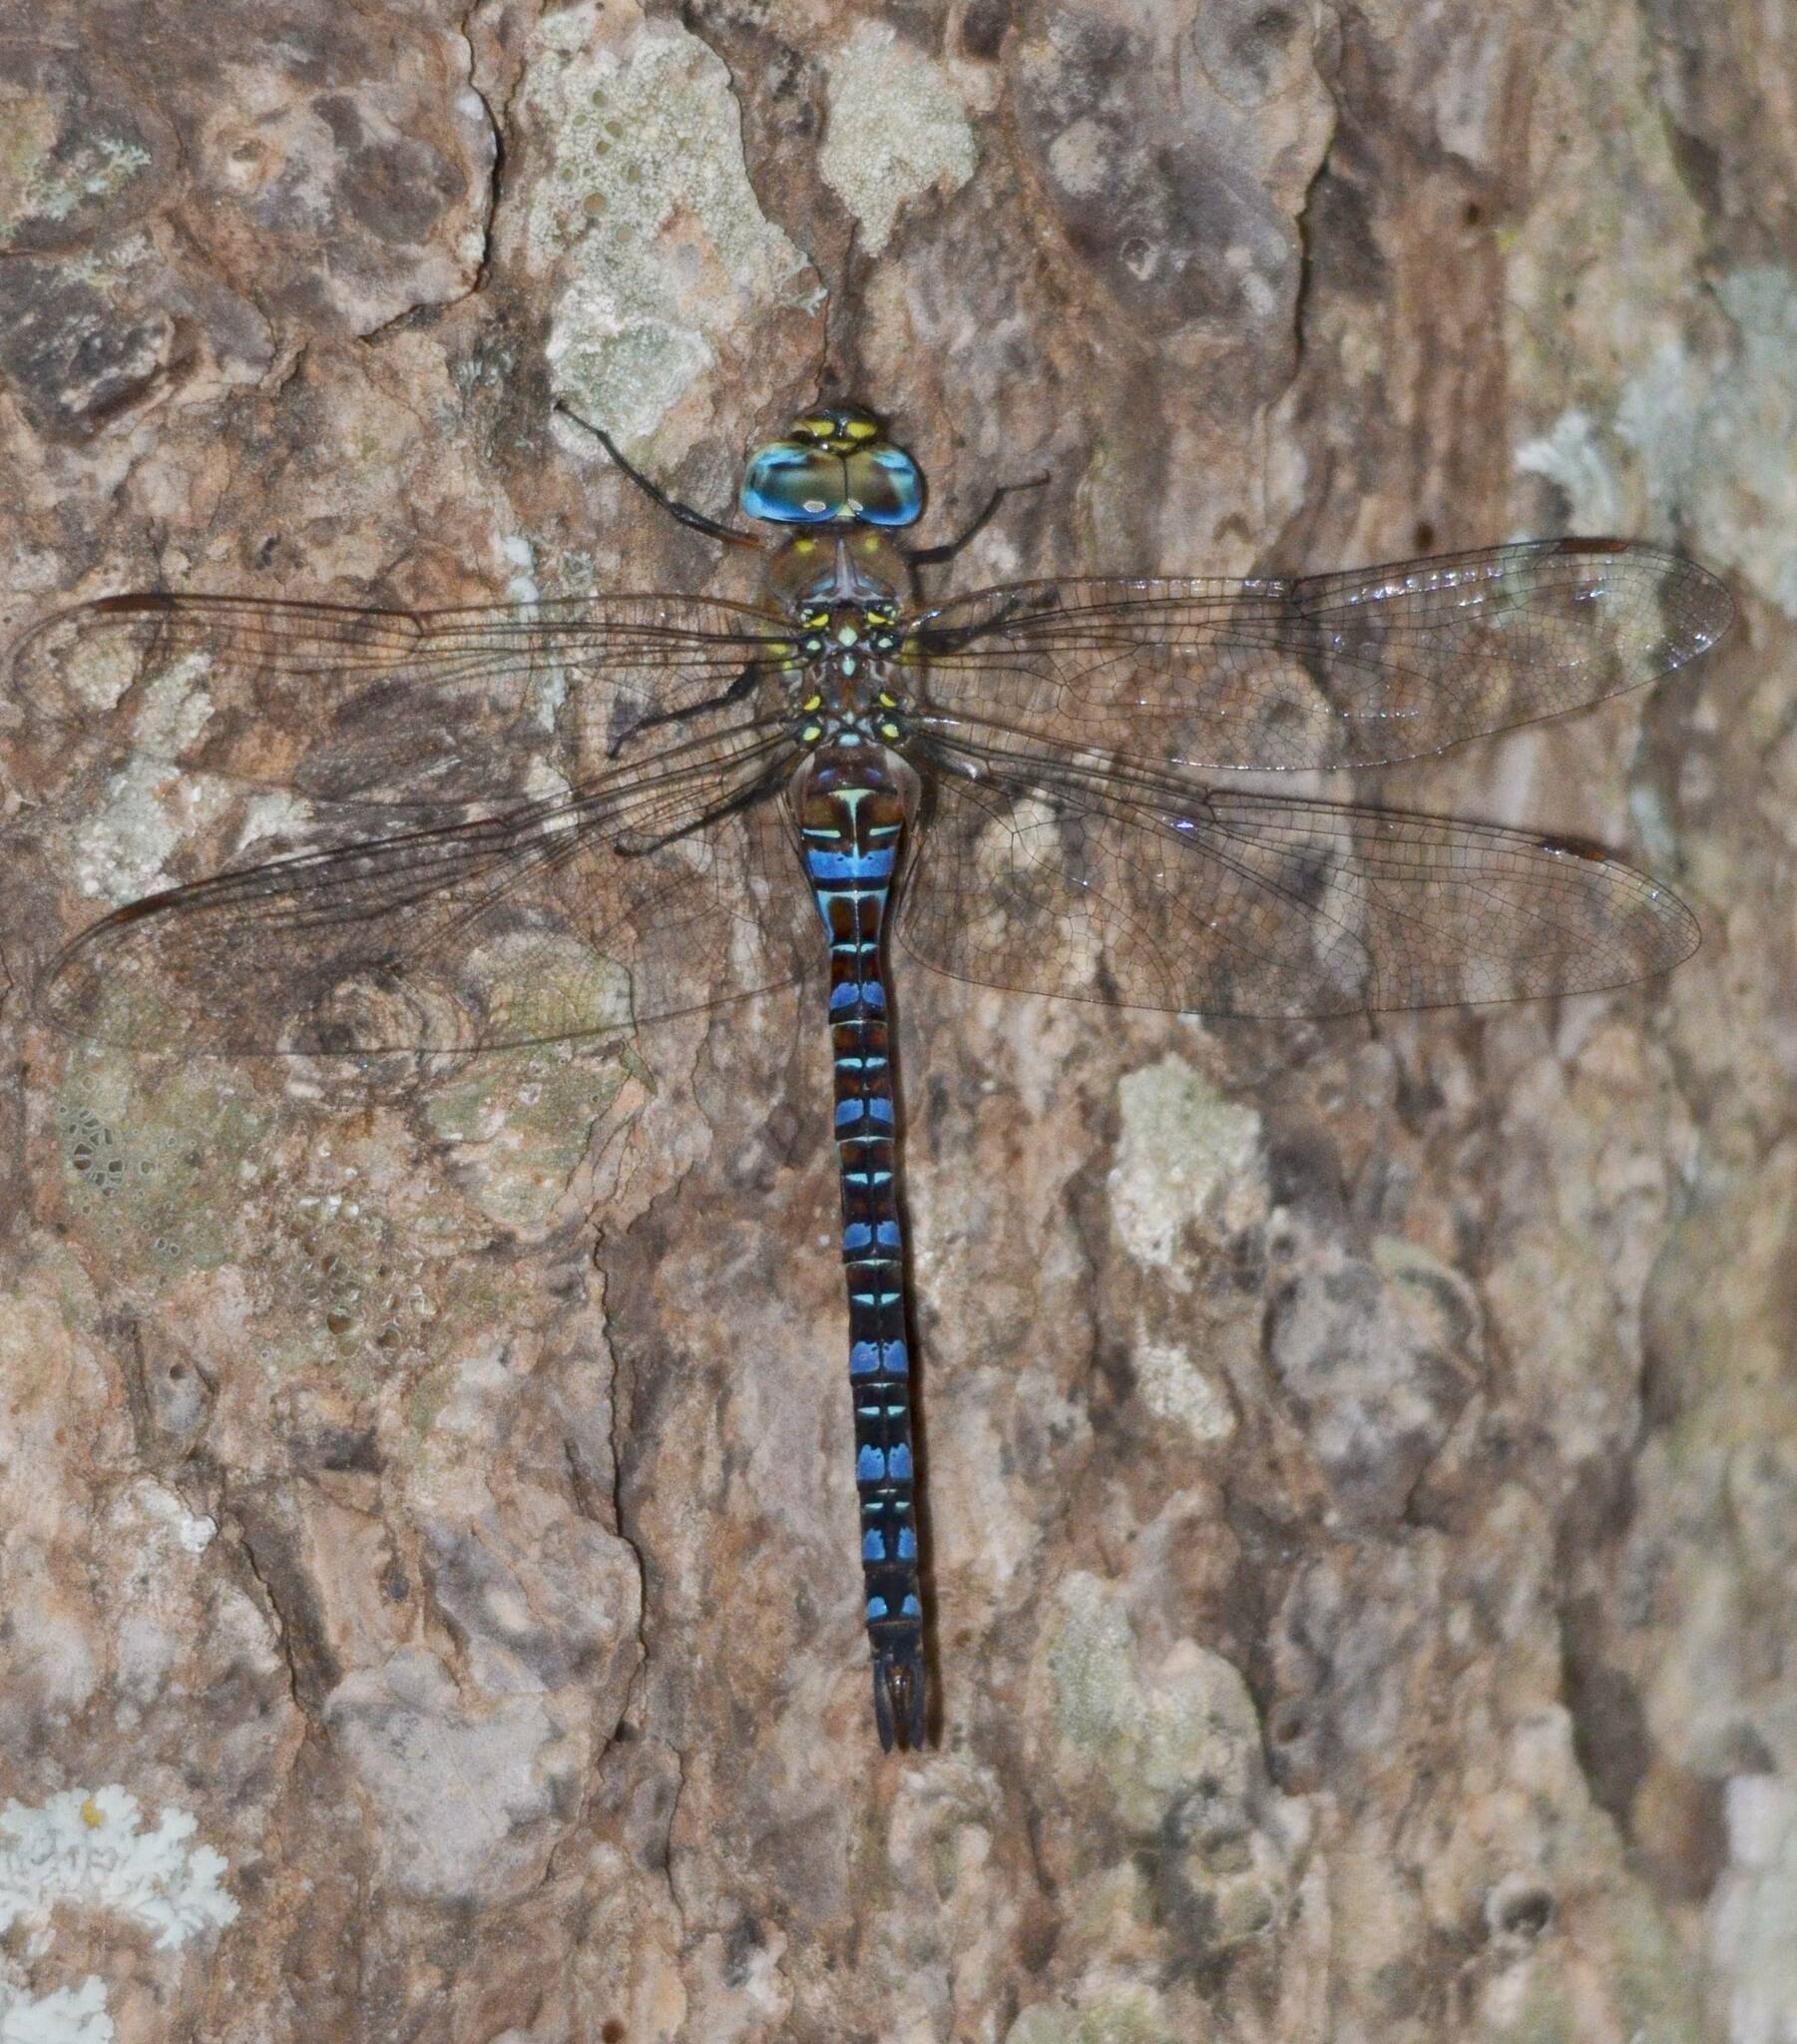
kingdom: Animalia
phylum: Arthropoda
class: Insecta
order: Odonata
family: Aeshnidae
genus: Aeshna
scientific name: Aeshna mixta
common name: Migrant hawker
